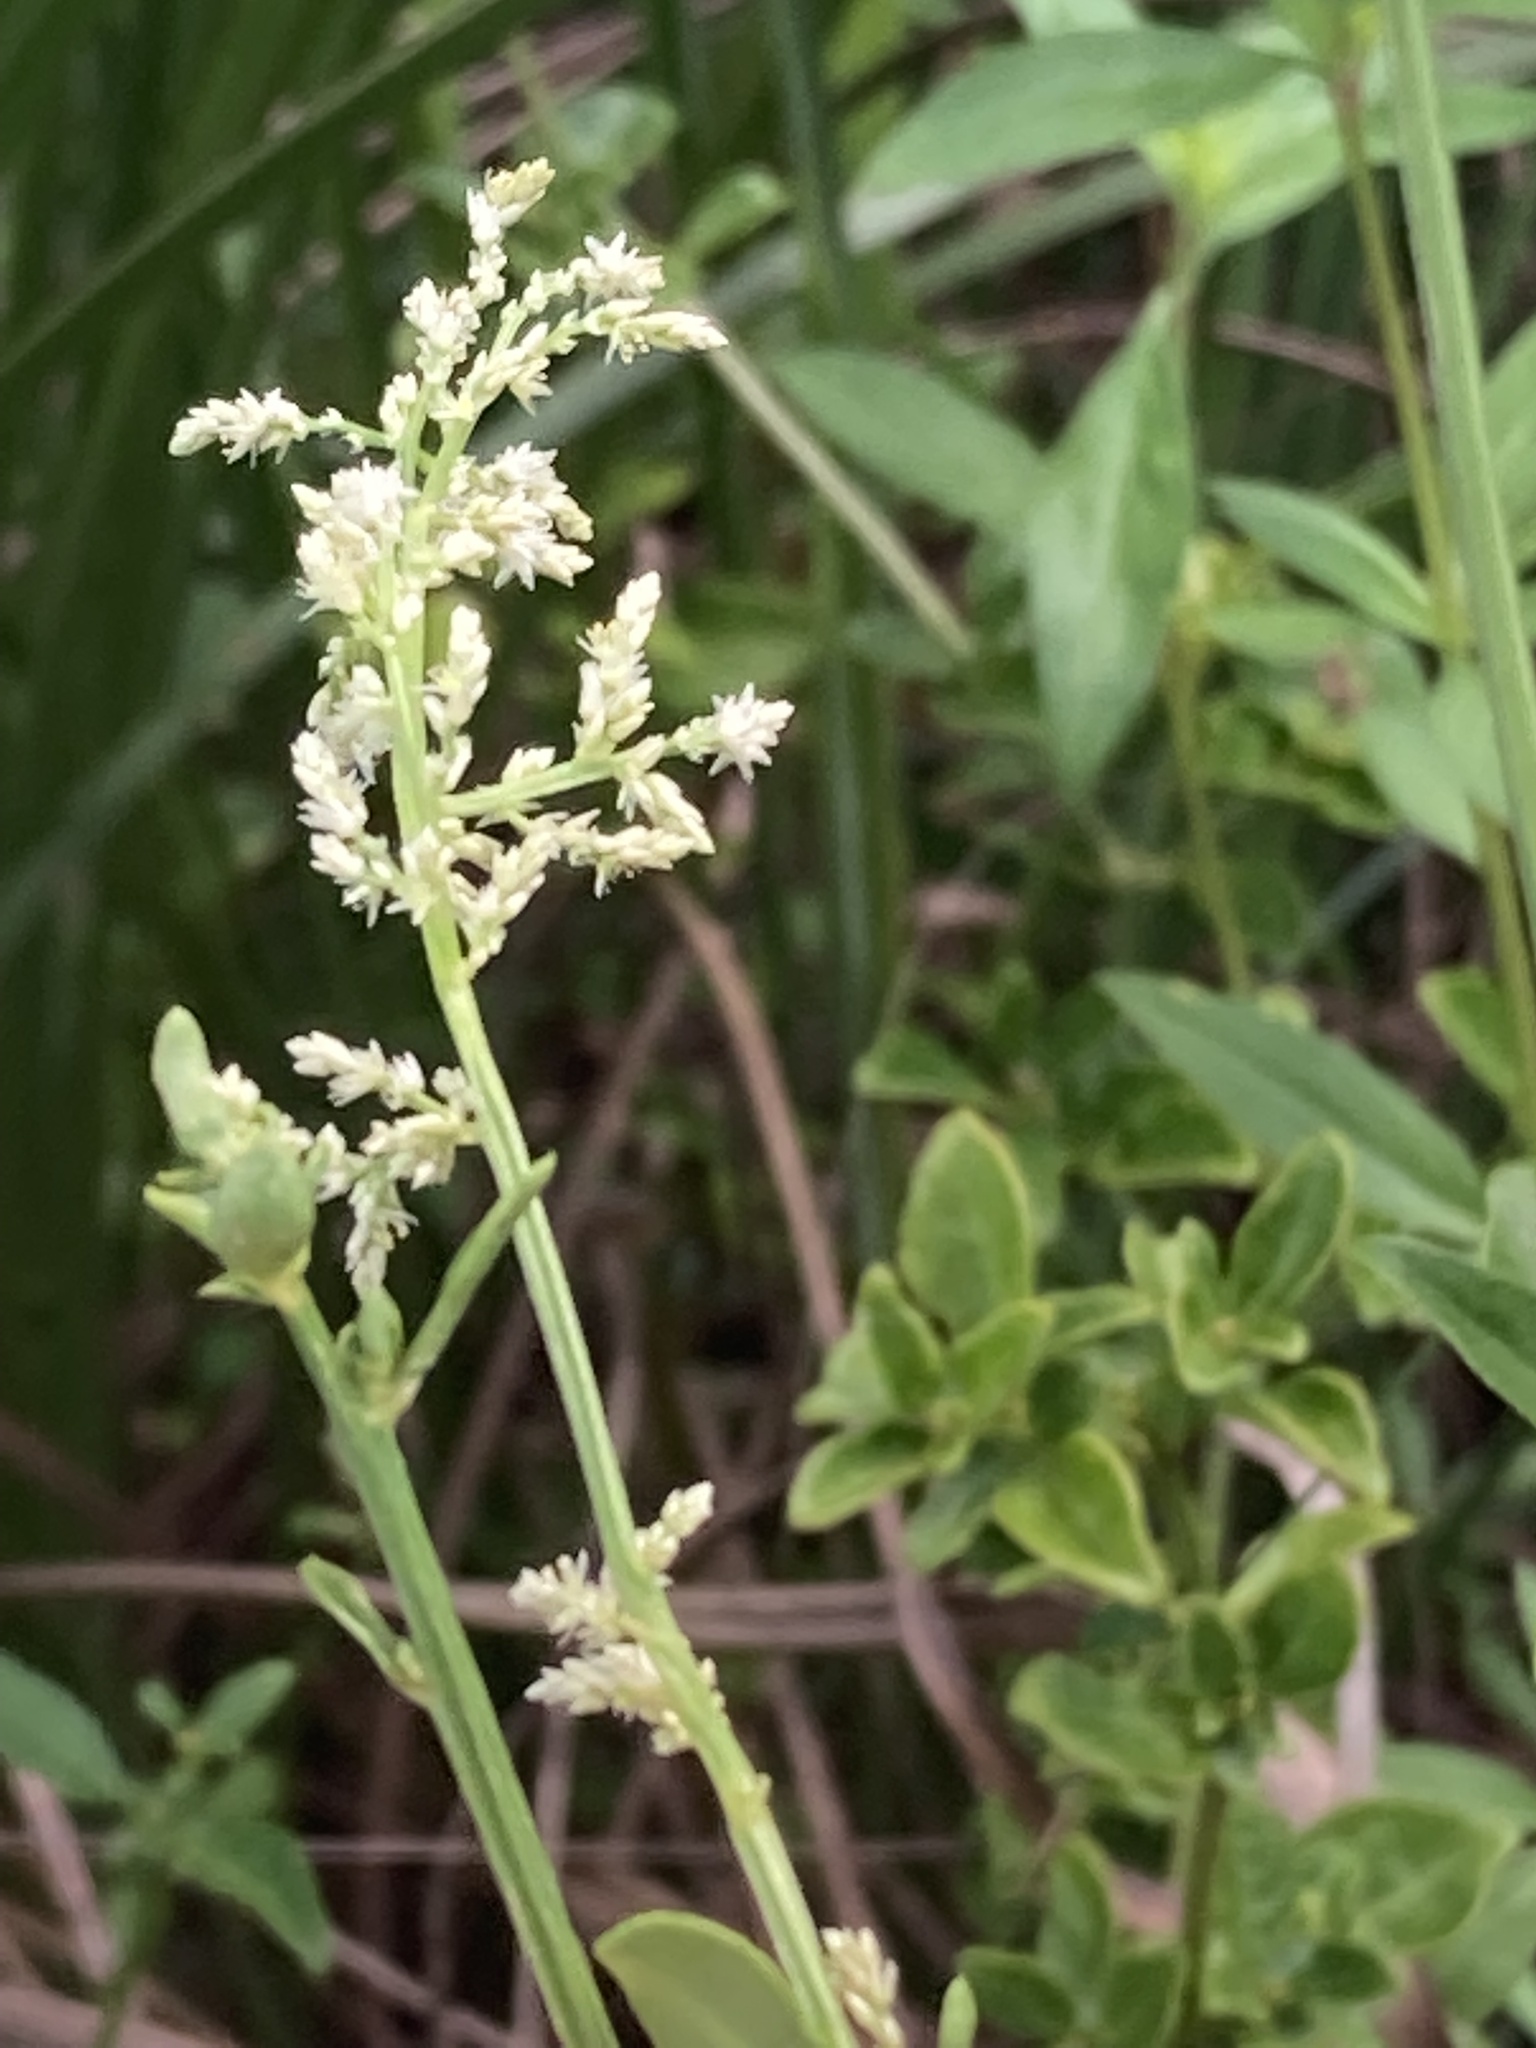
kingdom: Plantae
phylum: Tracheophyta
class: Magnoliopsida
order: Caryophyllales
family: Amaranthaceae
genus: Iresine
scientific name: Iresine diffusa
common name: Juba's-bush
